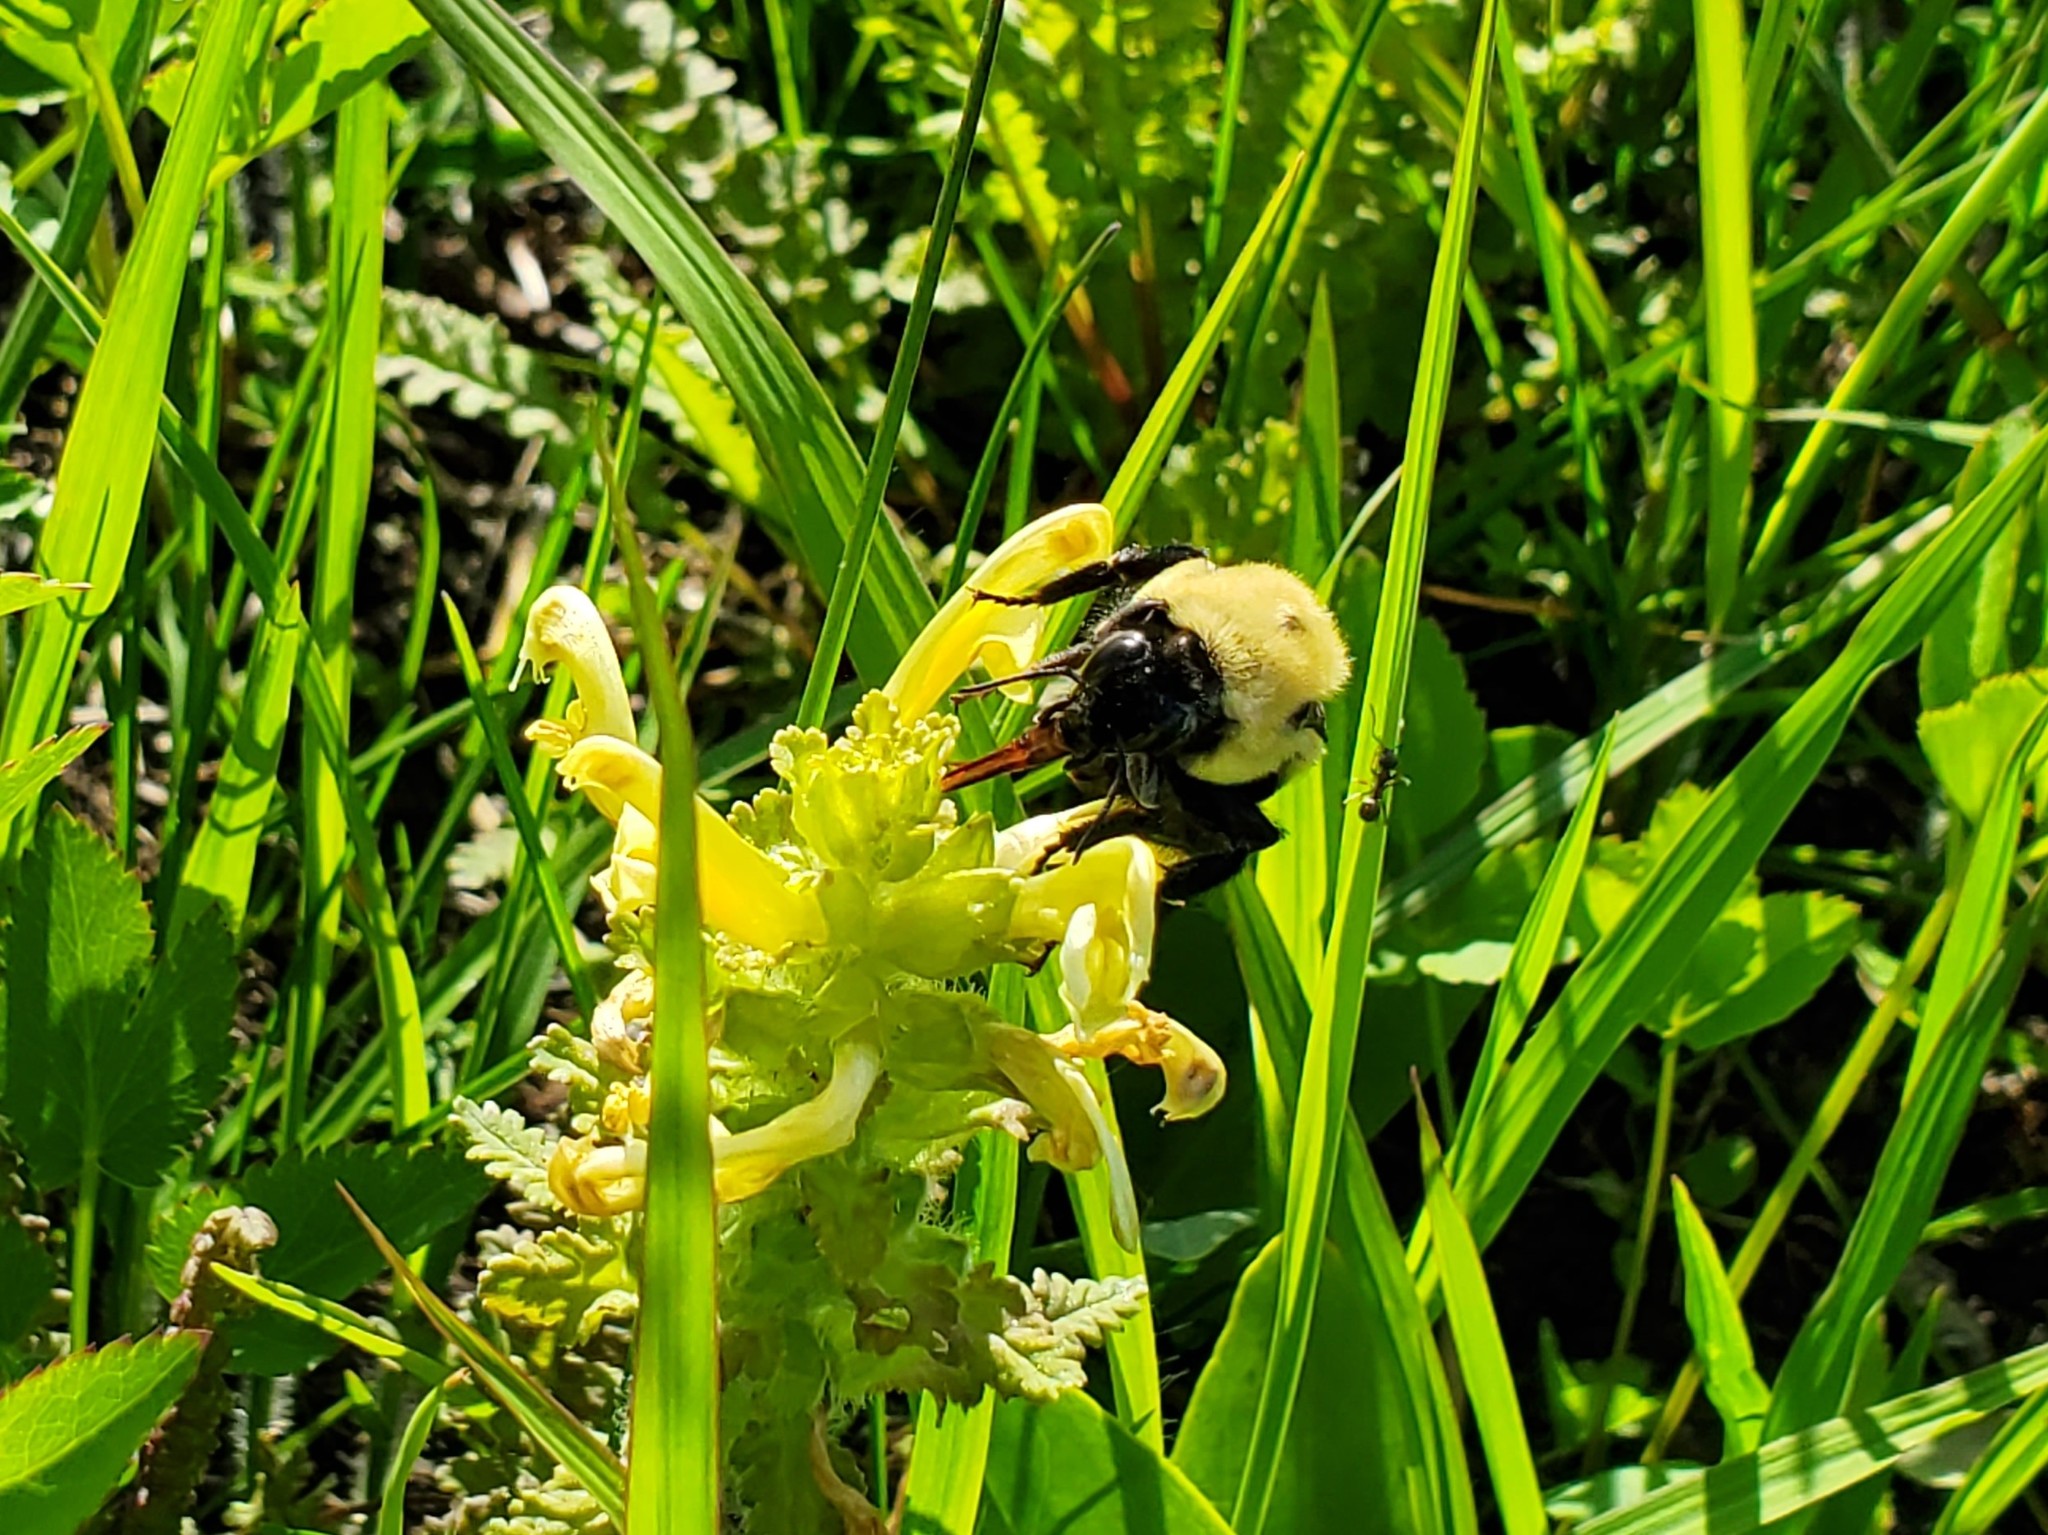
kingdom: Animalia
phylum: Arthropoda
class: Insecta
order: Hymenoptera
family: Apidae
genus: Bombus
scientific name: Bombus griseocollis
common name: Brown-belted bumble bee
